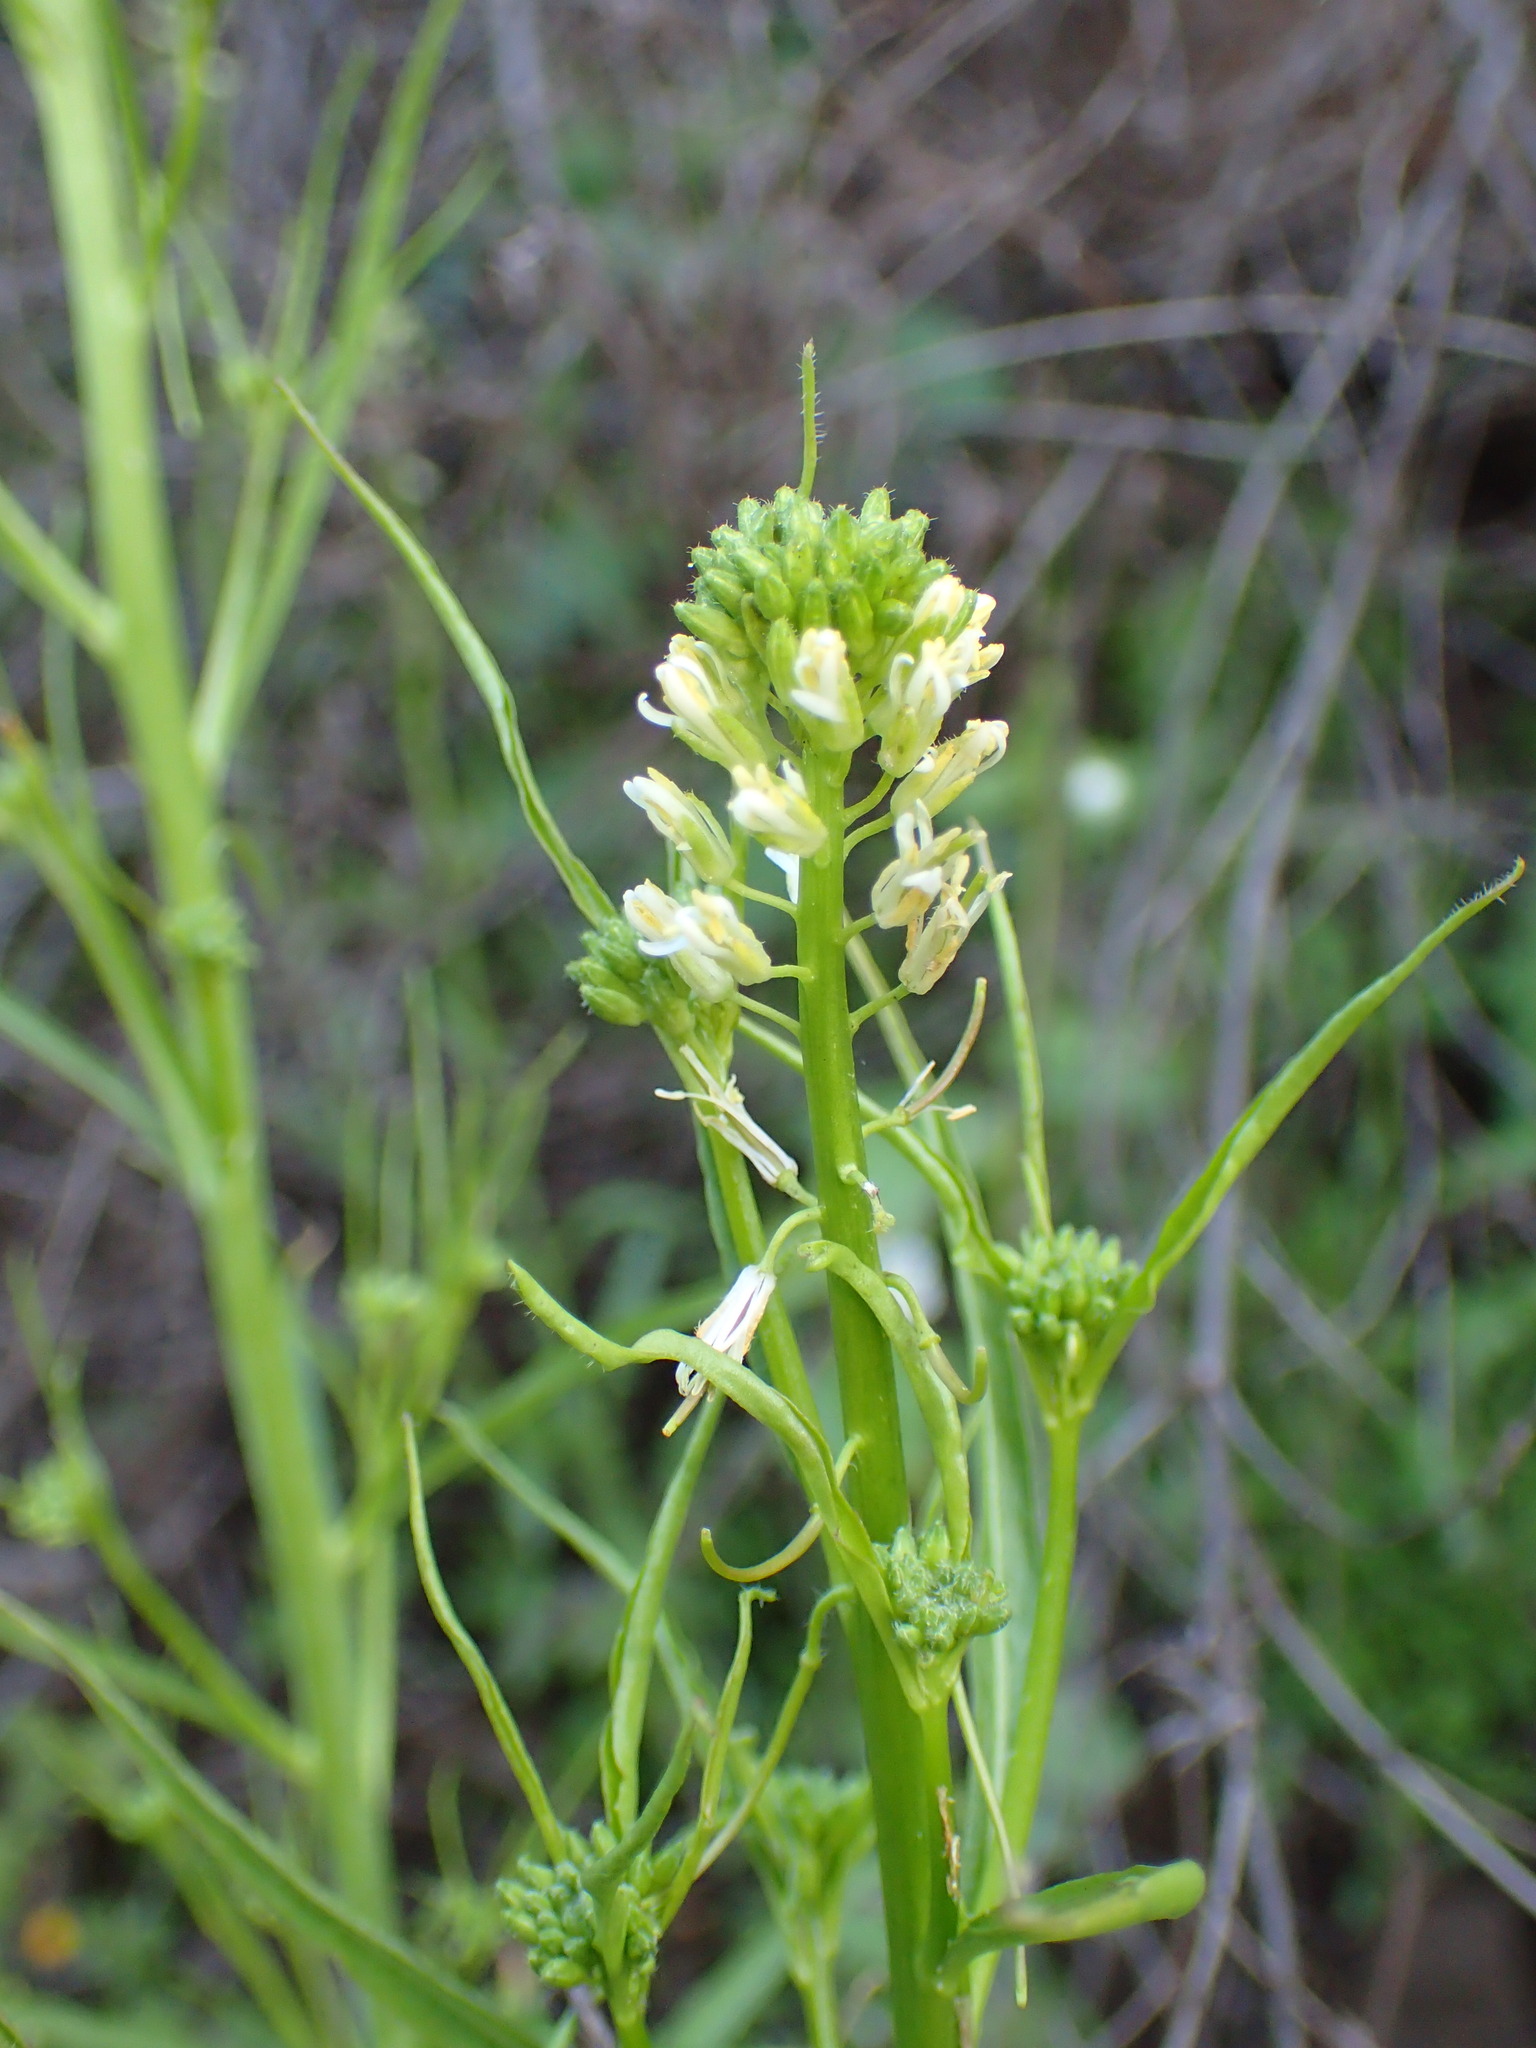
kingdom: Plantae
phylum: Tracheophyta
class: Magnoliopsida
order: Brassicales
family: Brassicaceae
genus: Streptanthus
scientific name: Streptanthus lasiophyllus
